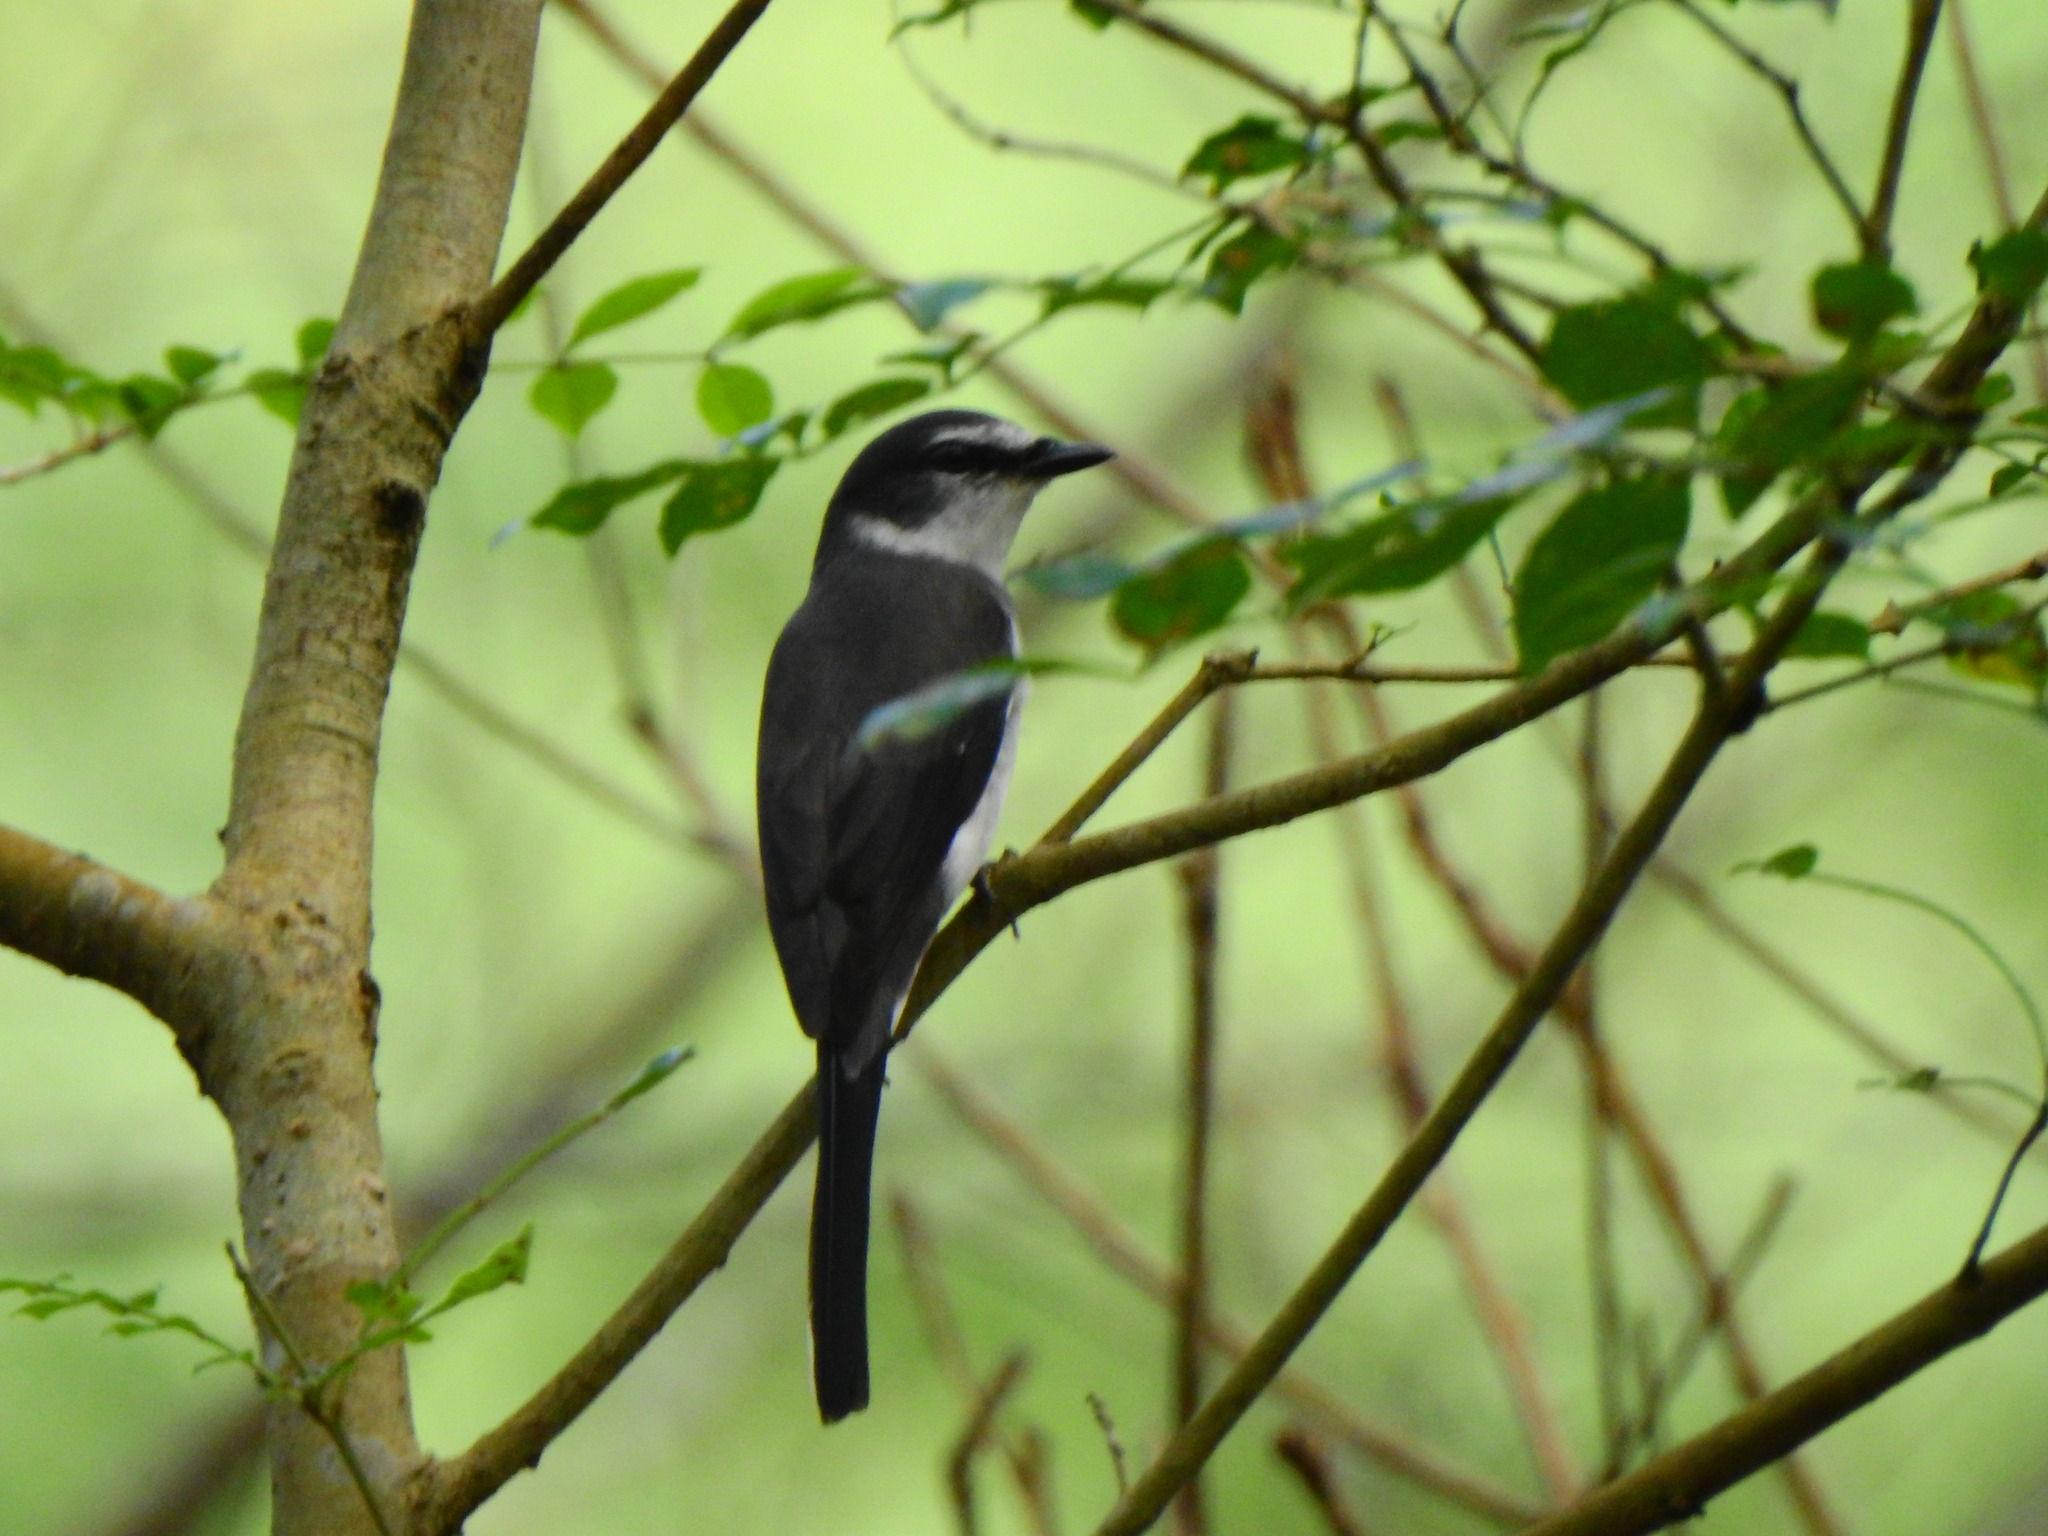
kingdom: Animalia
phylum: Chordata
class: Aves
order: Passeriformes
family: Campephagidae
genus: Pericrocotus
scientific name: Pericrocotus tegimae
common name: Ryukyu minivet
